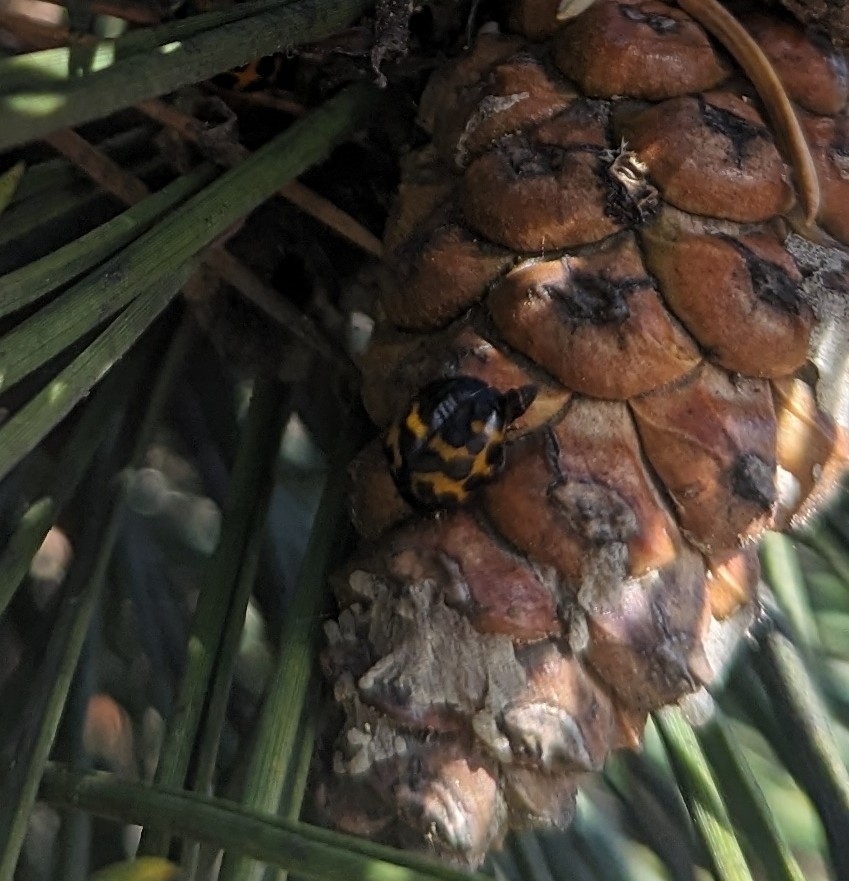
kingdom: Animalia
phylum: Arthropoda
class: Insecta
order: Coleoptera
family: Coccinellidae
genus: Harmonia
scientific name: Harmonia axyridis
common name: Harlequin ladybird
